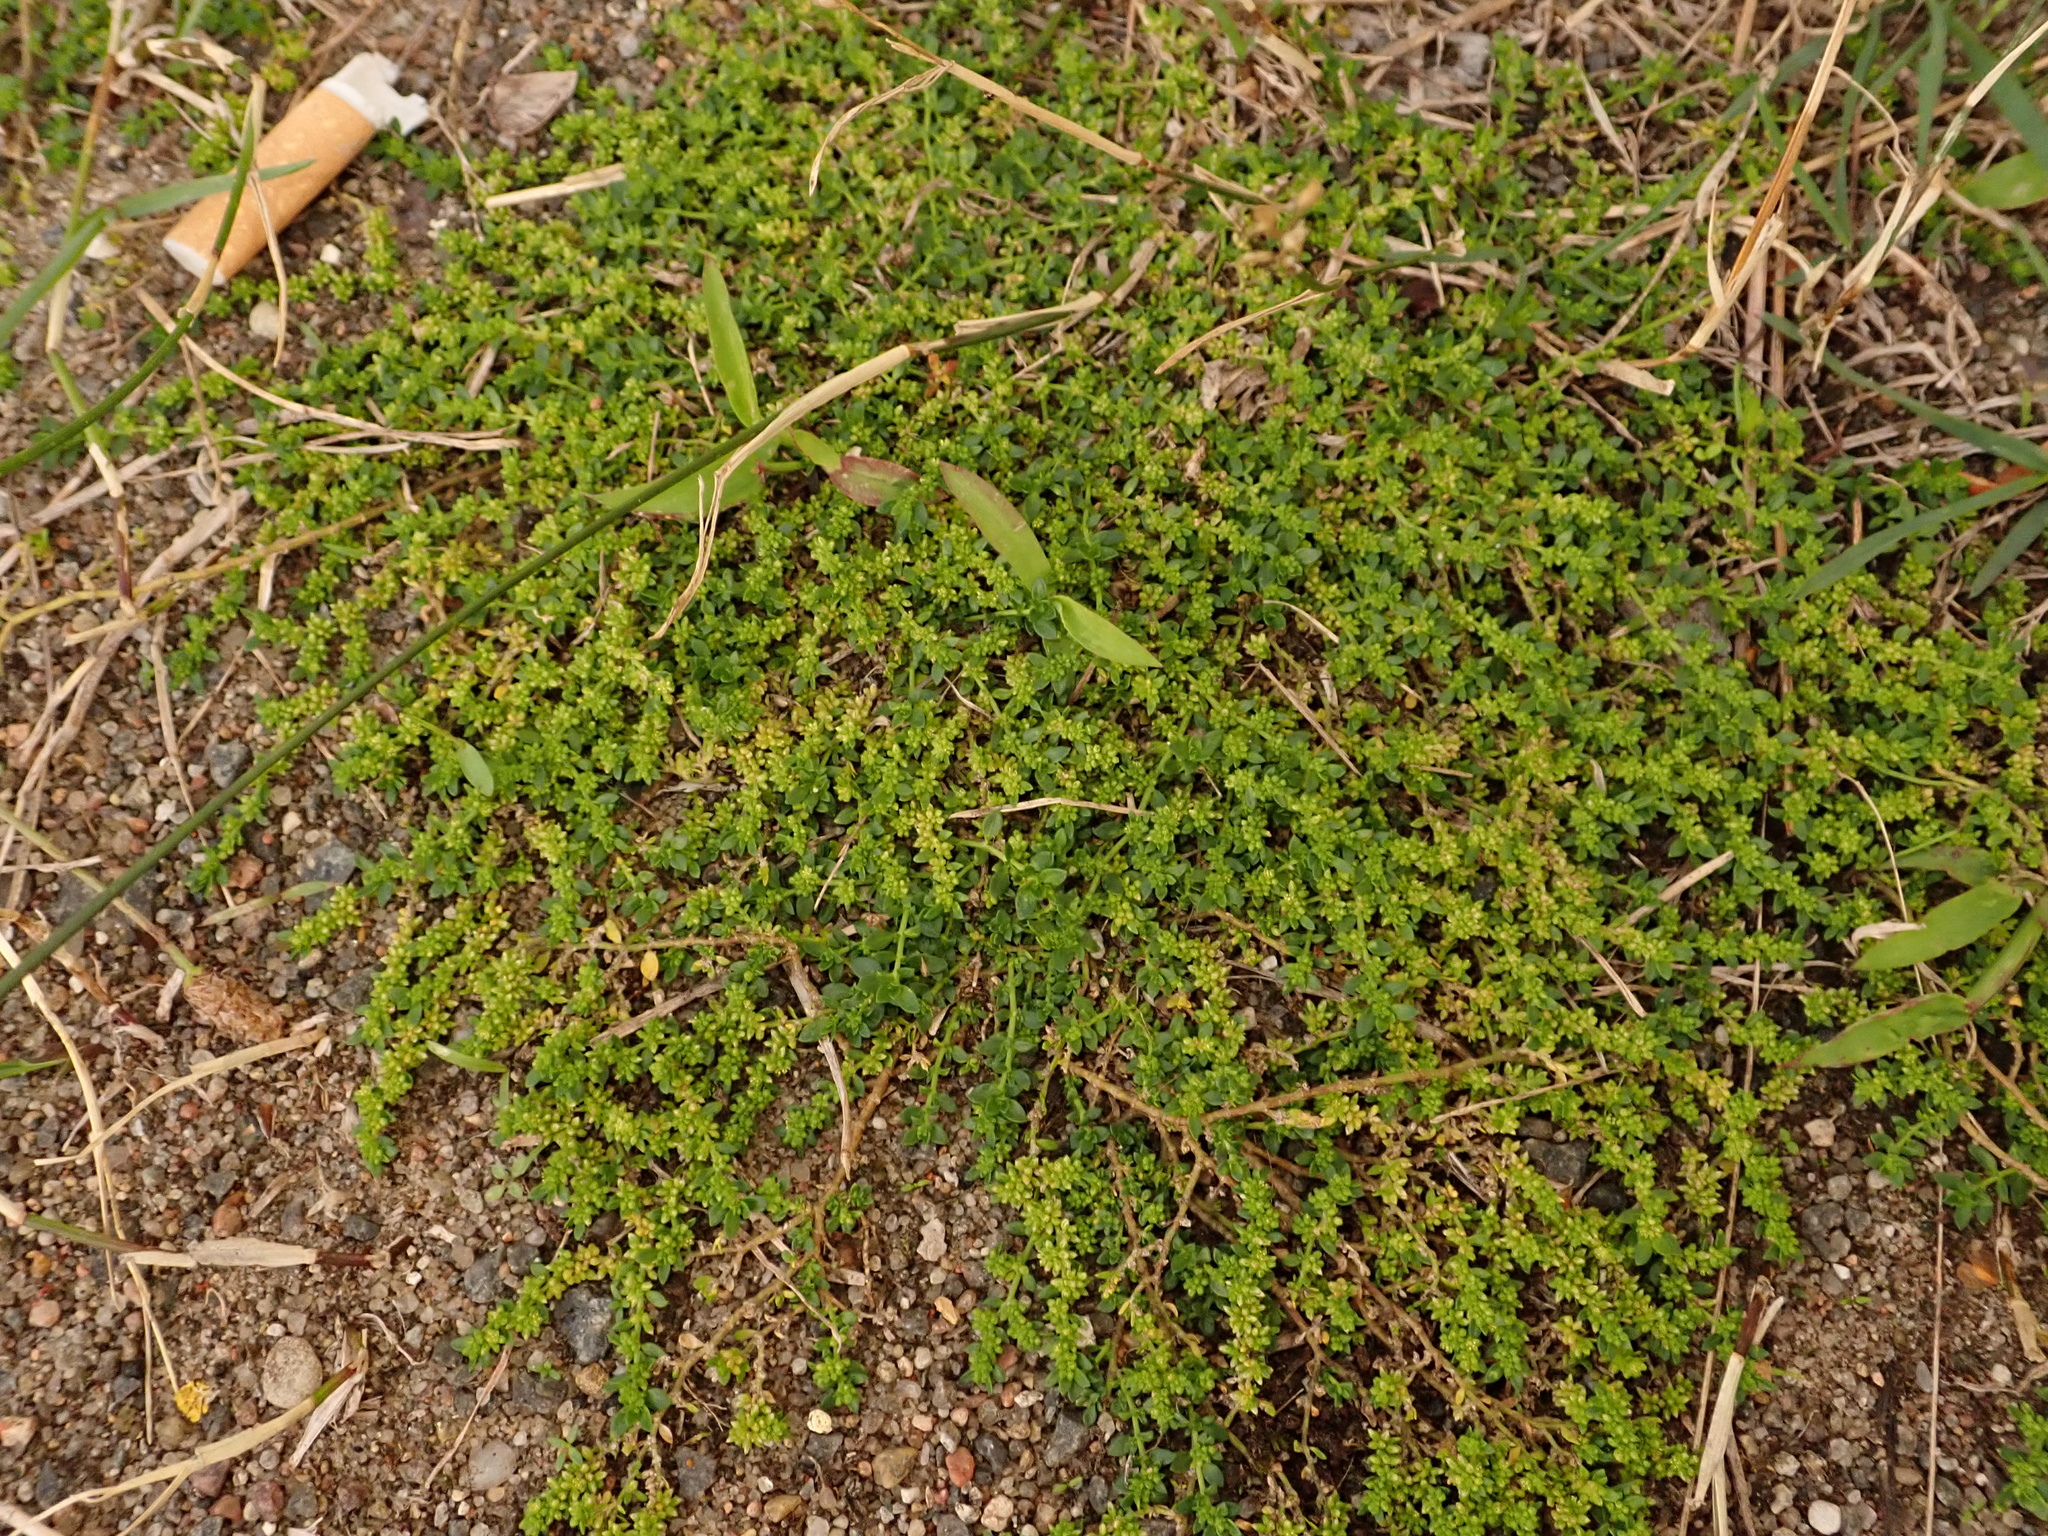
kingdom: Plantae
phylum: Tracheophyta
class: Magnoliopsida
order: Caryophyllales
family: Caryophyllaceae
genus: Herniaria
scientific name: Herniaria glabra
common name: Smooth rupturewort
